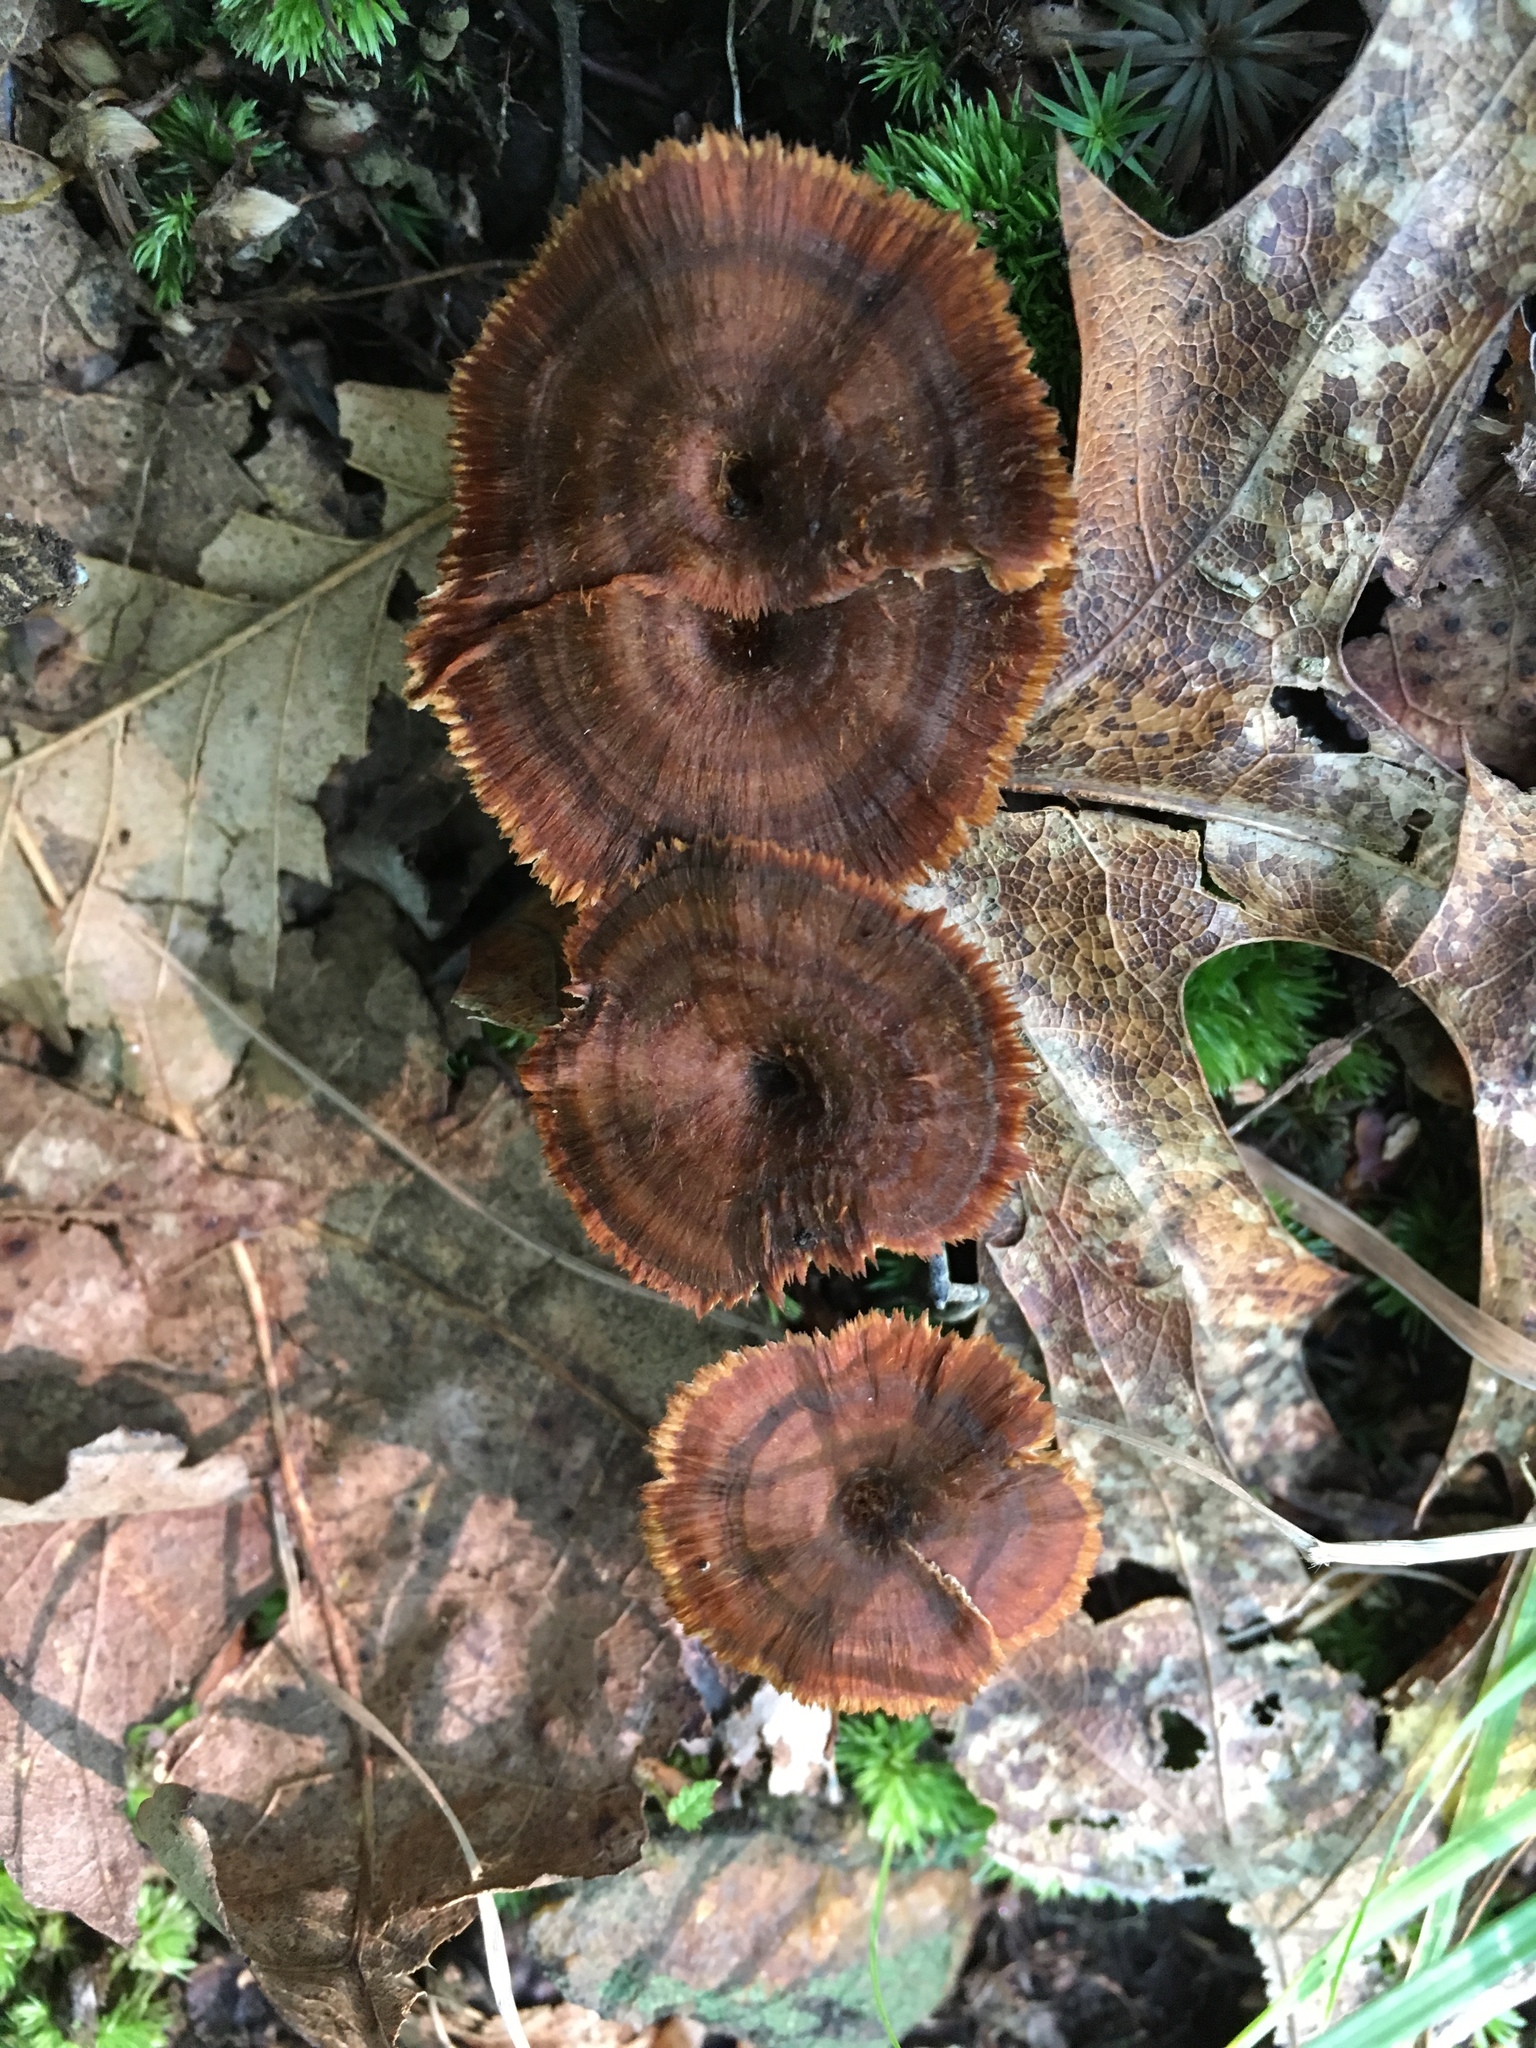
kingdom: Fungi
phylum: Basidiomycota
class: Agaricomycetes
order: Hymenochaetales
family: Hymenochaetaceae
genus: Coltricia
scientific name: Coltricia cinnamomea
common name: Shiny cinnamon polypore
